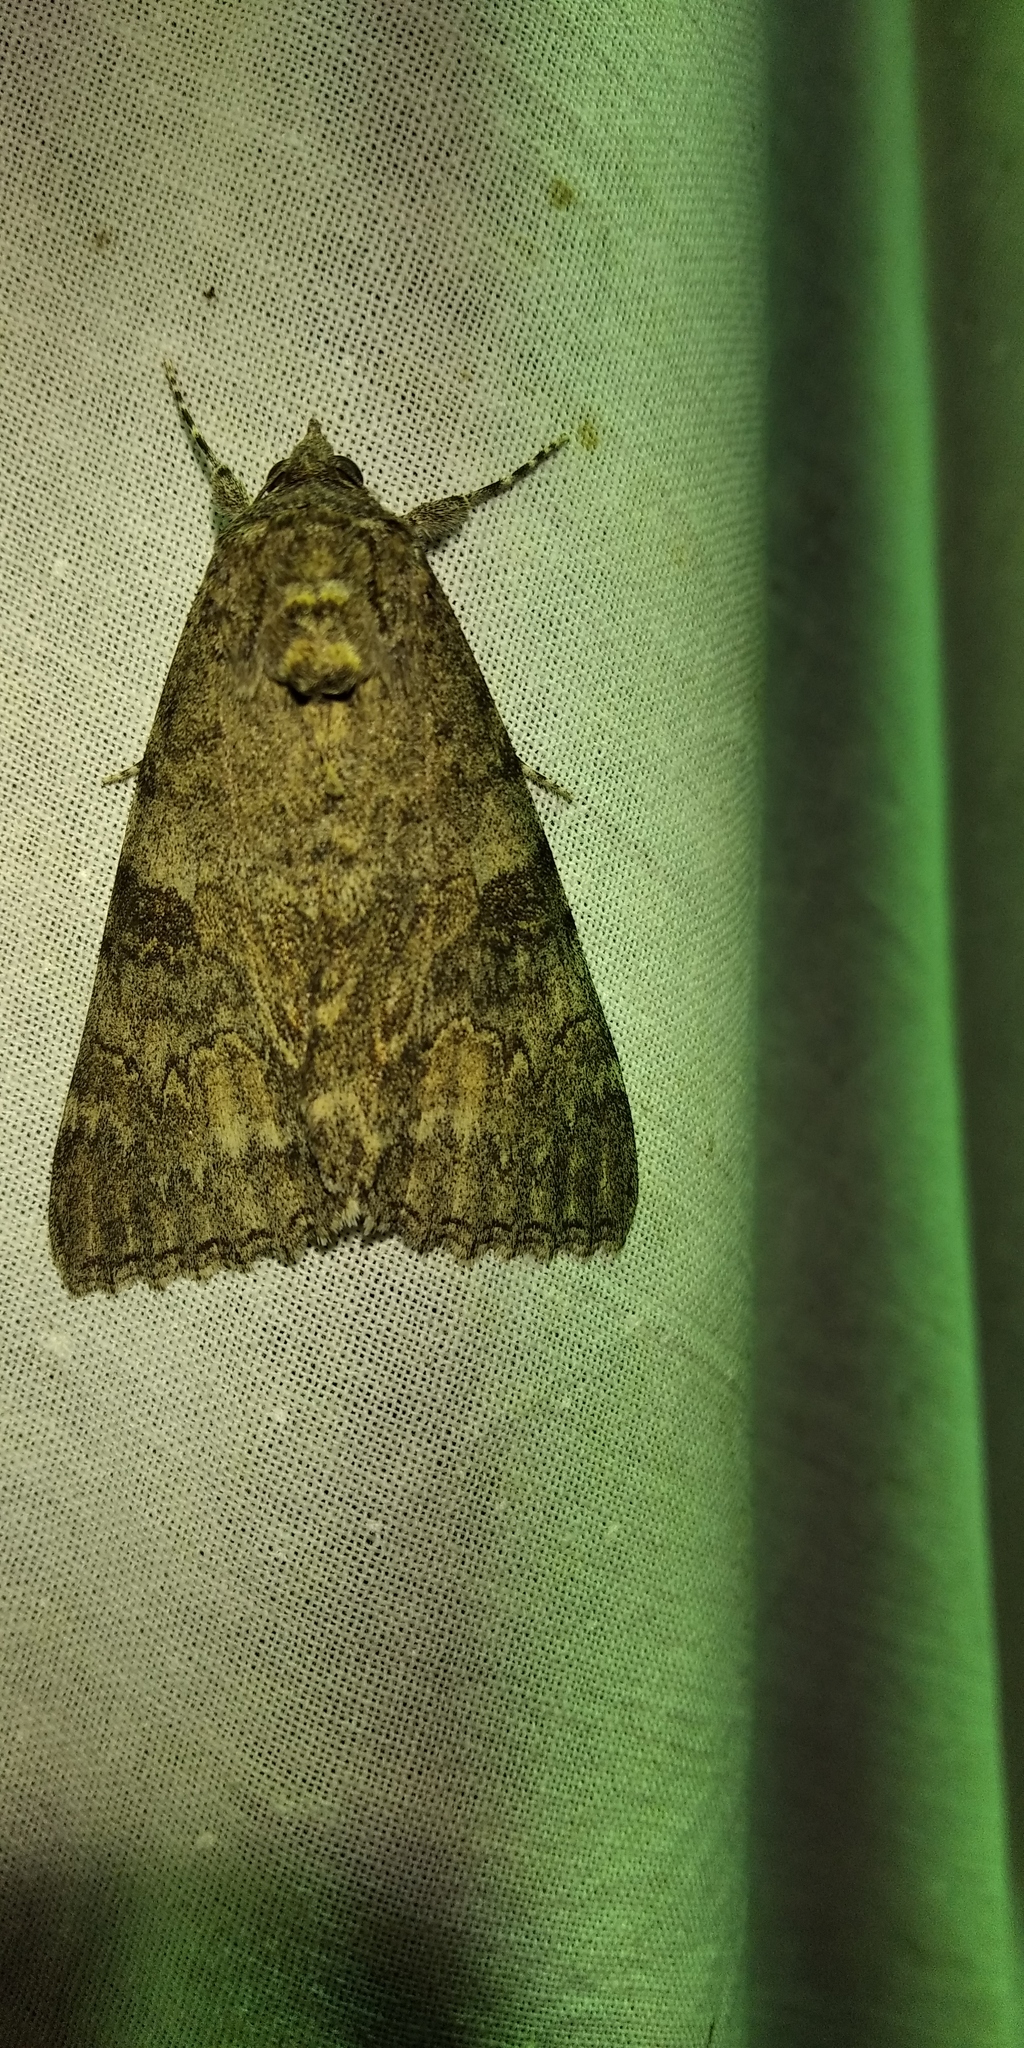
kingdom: Animalia
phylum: Arthropoda
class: Insecta
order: Lepidoptera
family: Erebidae
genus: Catocala
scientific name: Catocala nupta
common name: Red underwing
